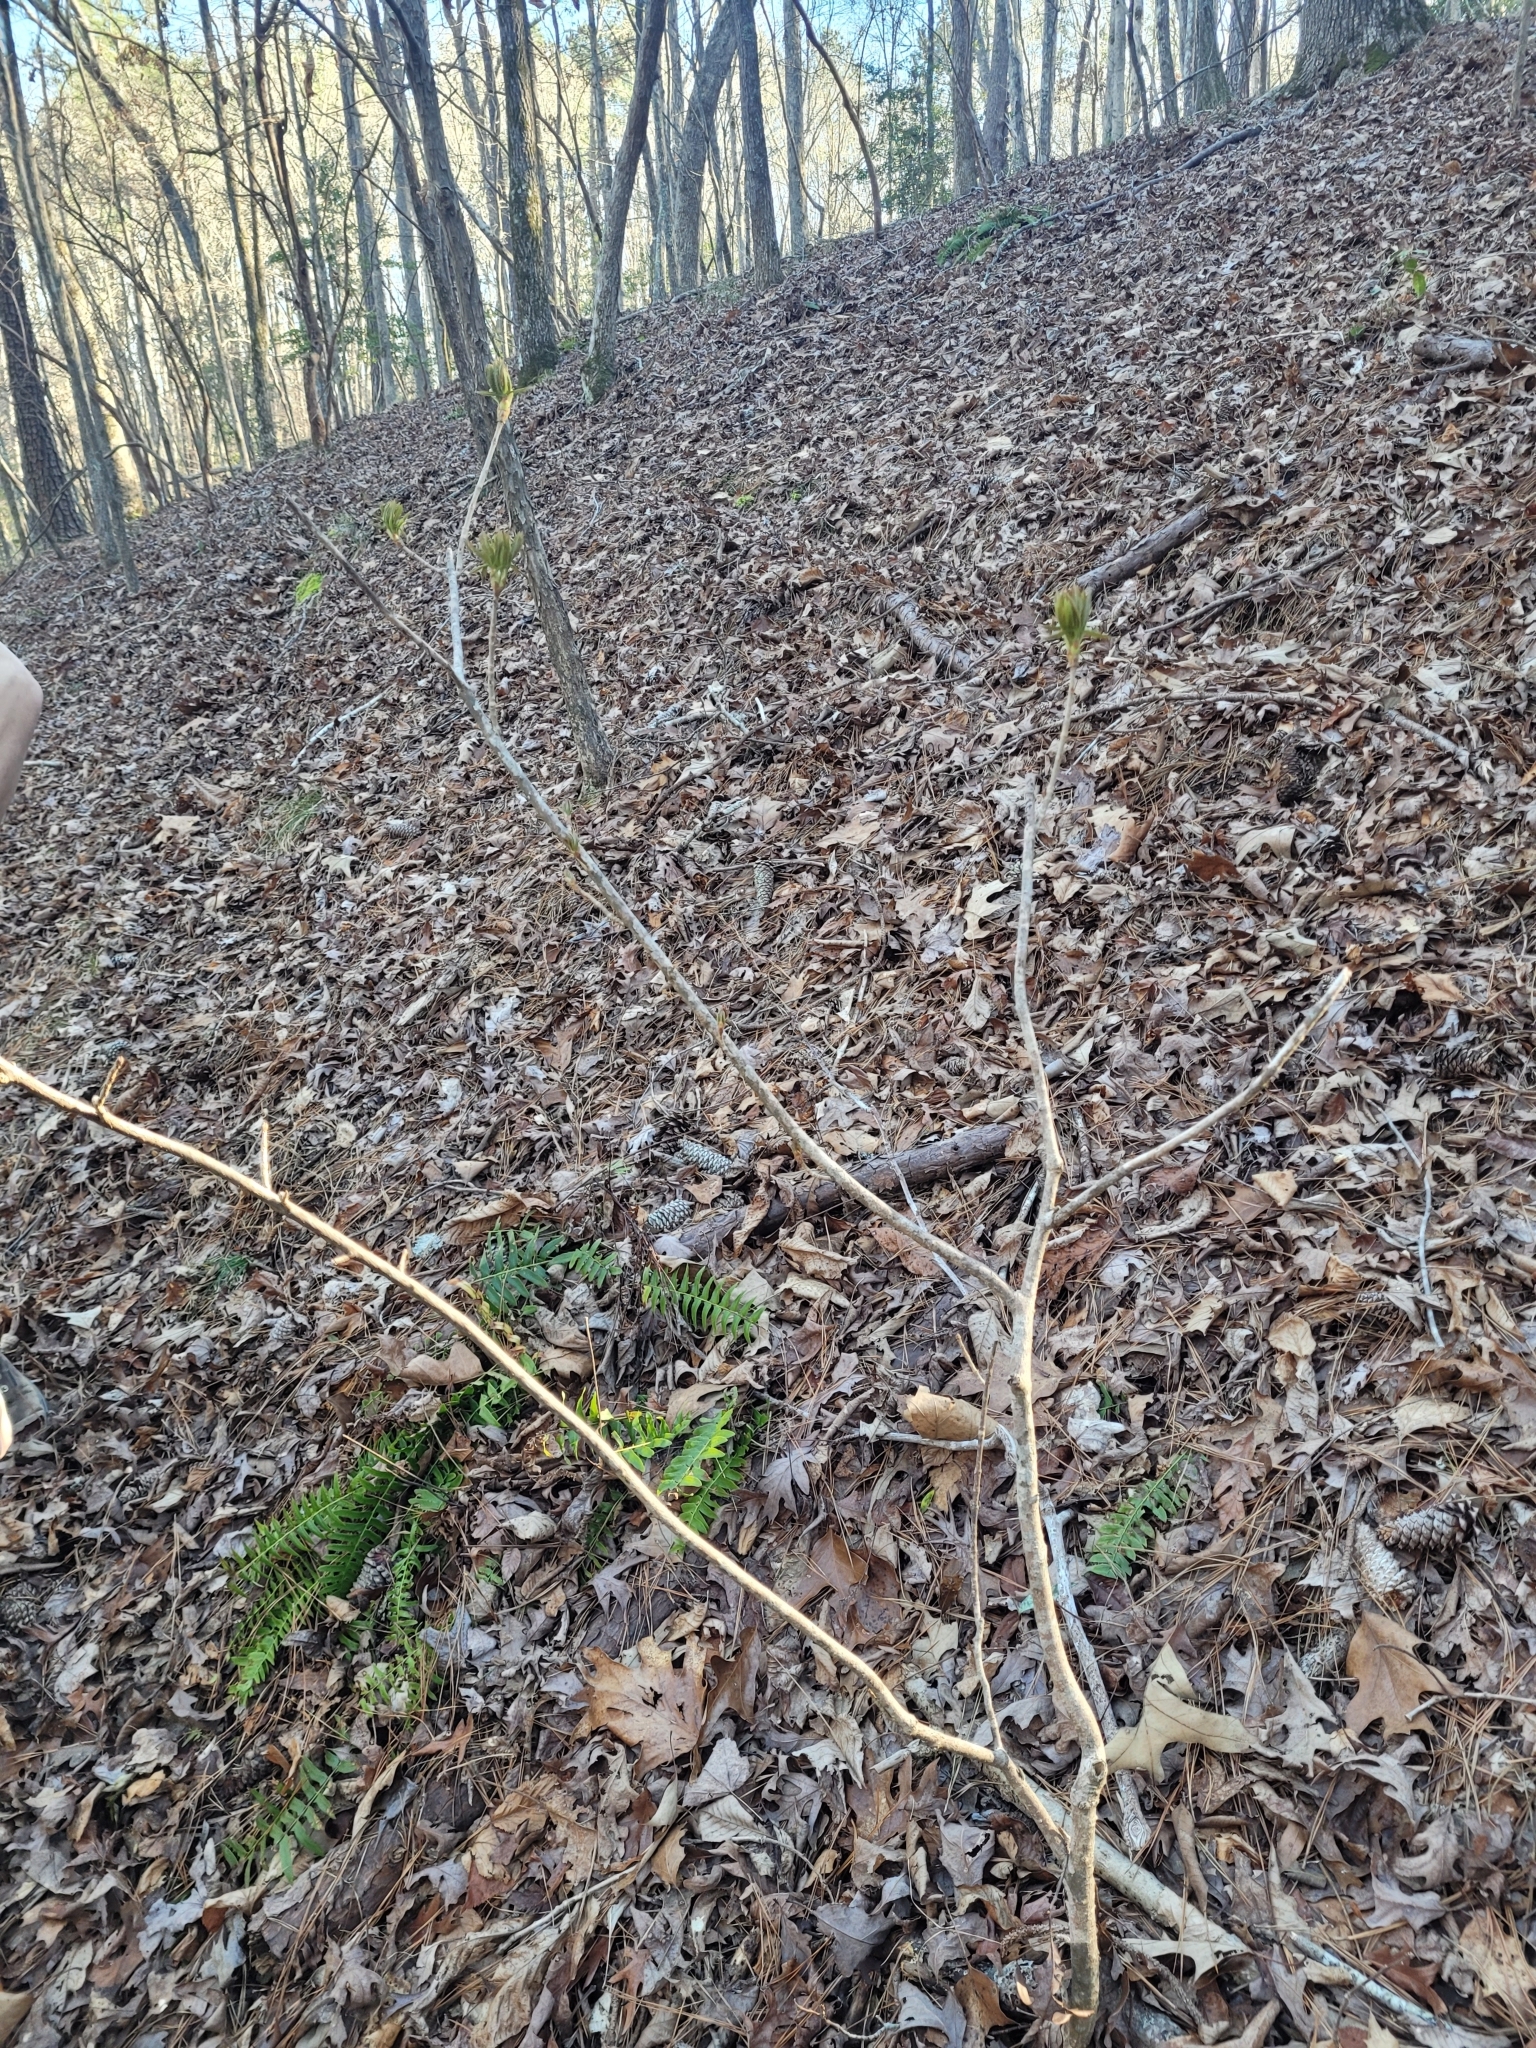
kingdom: Plantae
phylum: Tracheophyta
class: Magnoliopsida
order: Sapindales
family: Sapindaceae
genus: Aesculus
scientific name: Aesculus sylvatica
